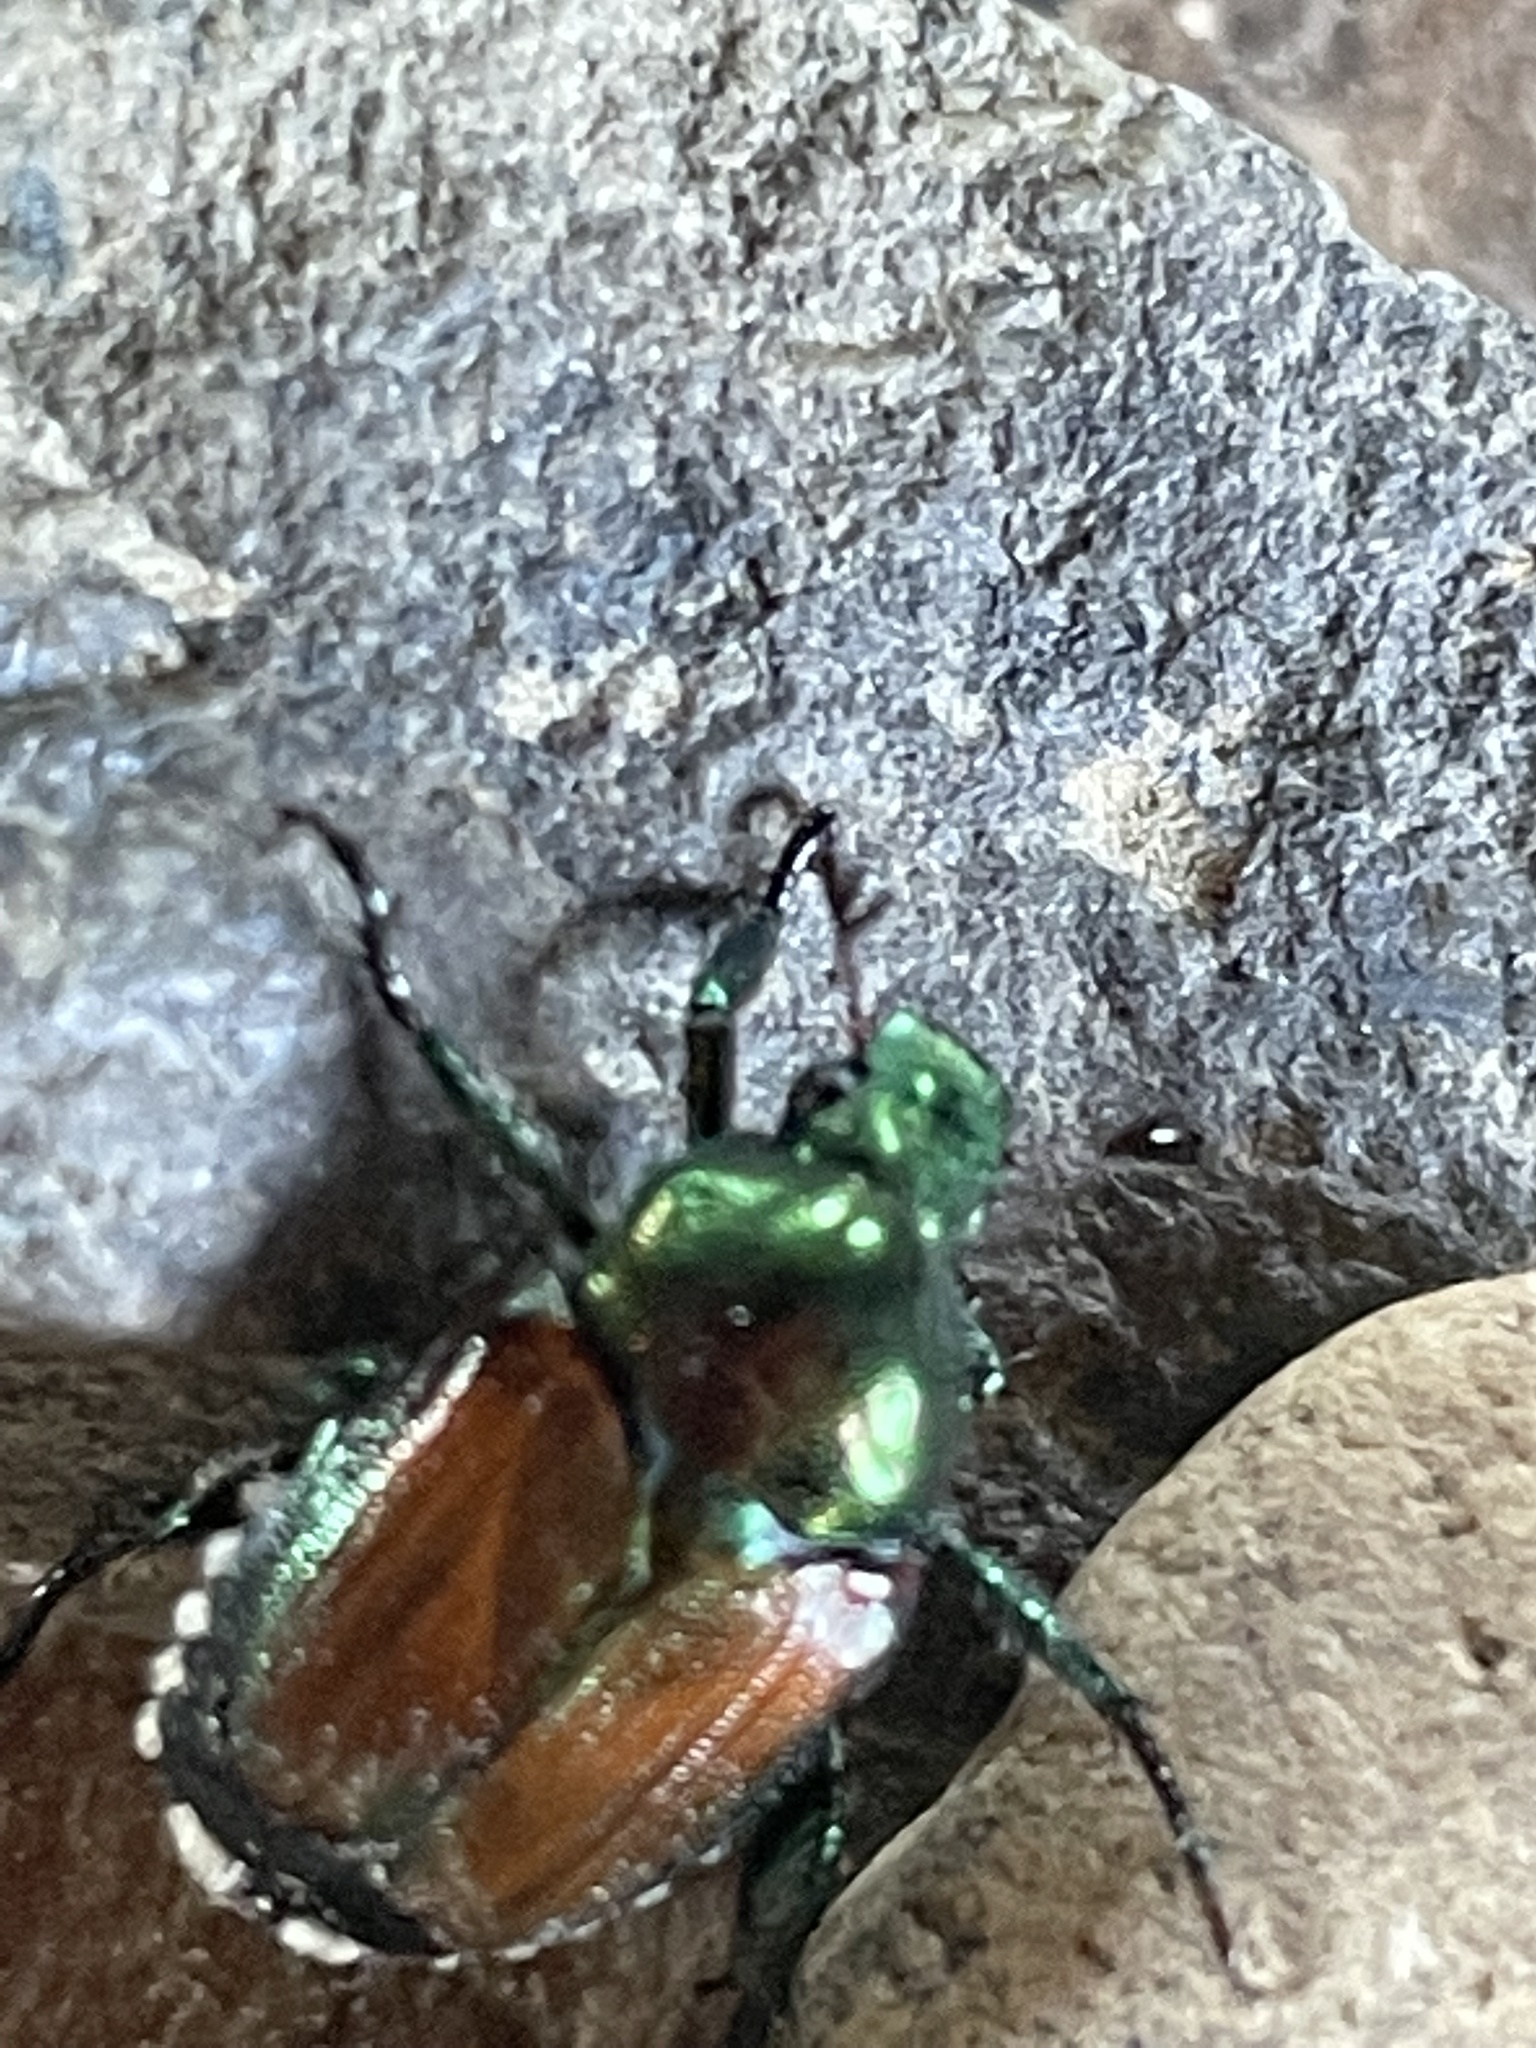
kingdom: Animalia
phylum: Arthropoda
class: Insecta
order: Coleoptera
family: Scarabaeidae
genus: Popillia
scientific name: Popillia japonica
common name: Japanese beetle
